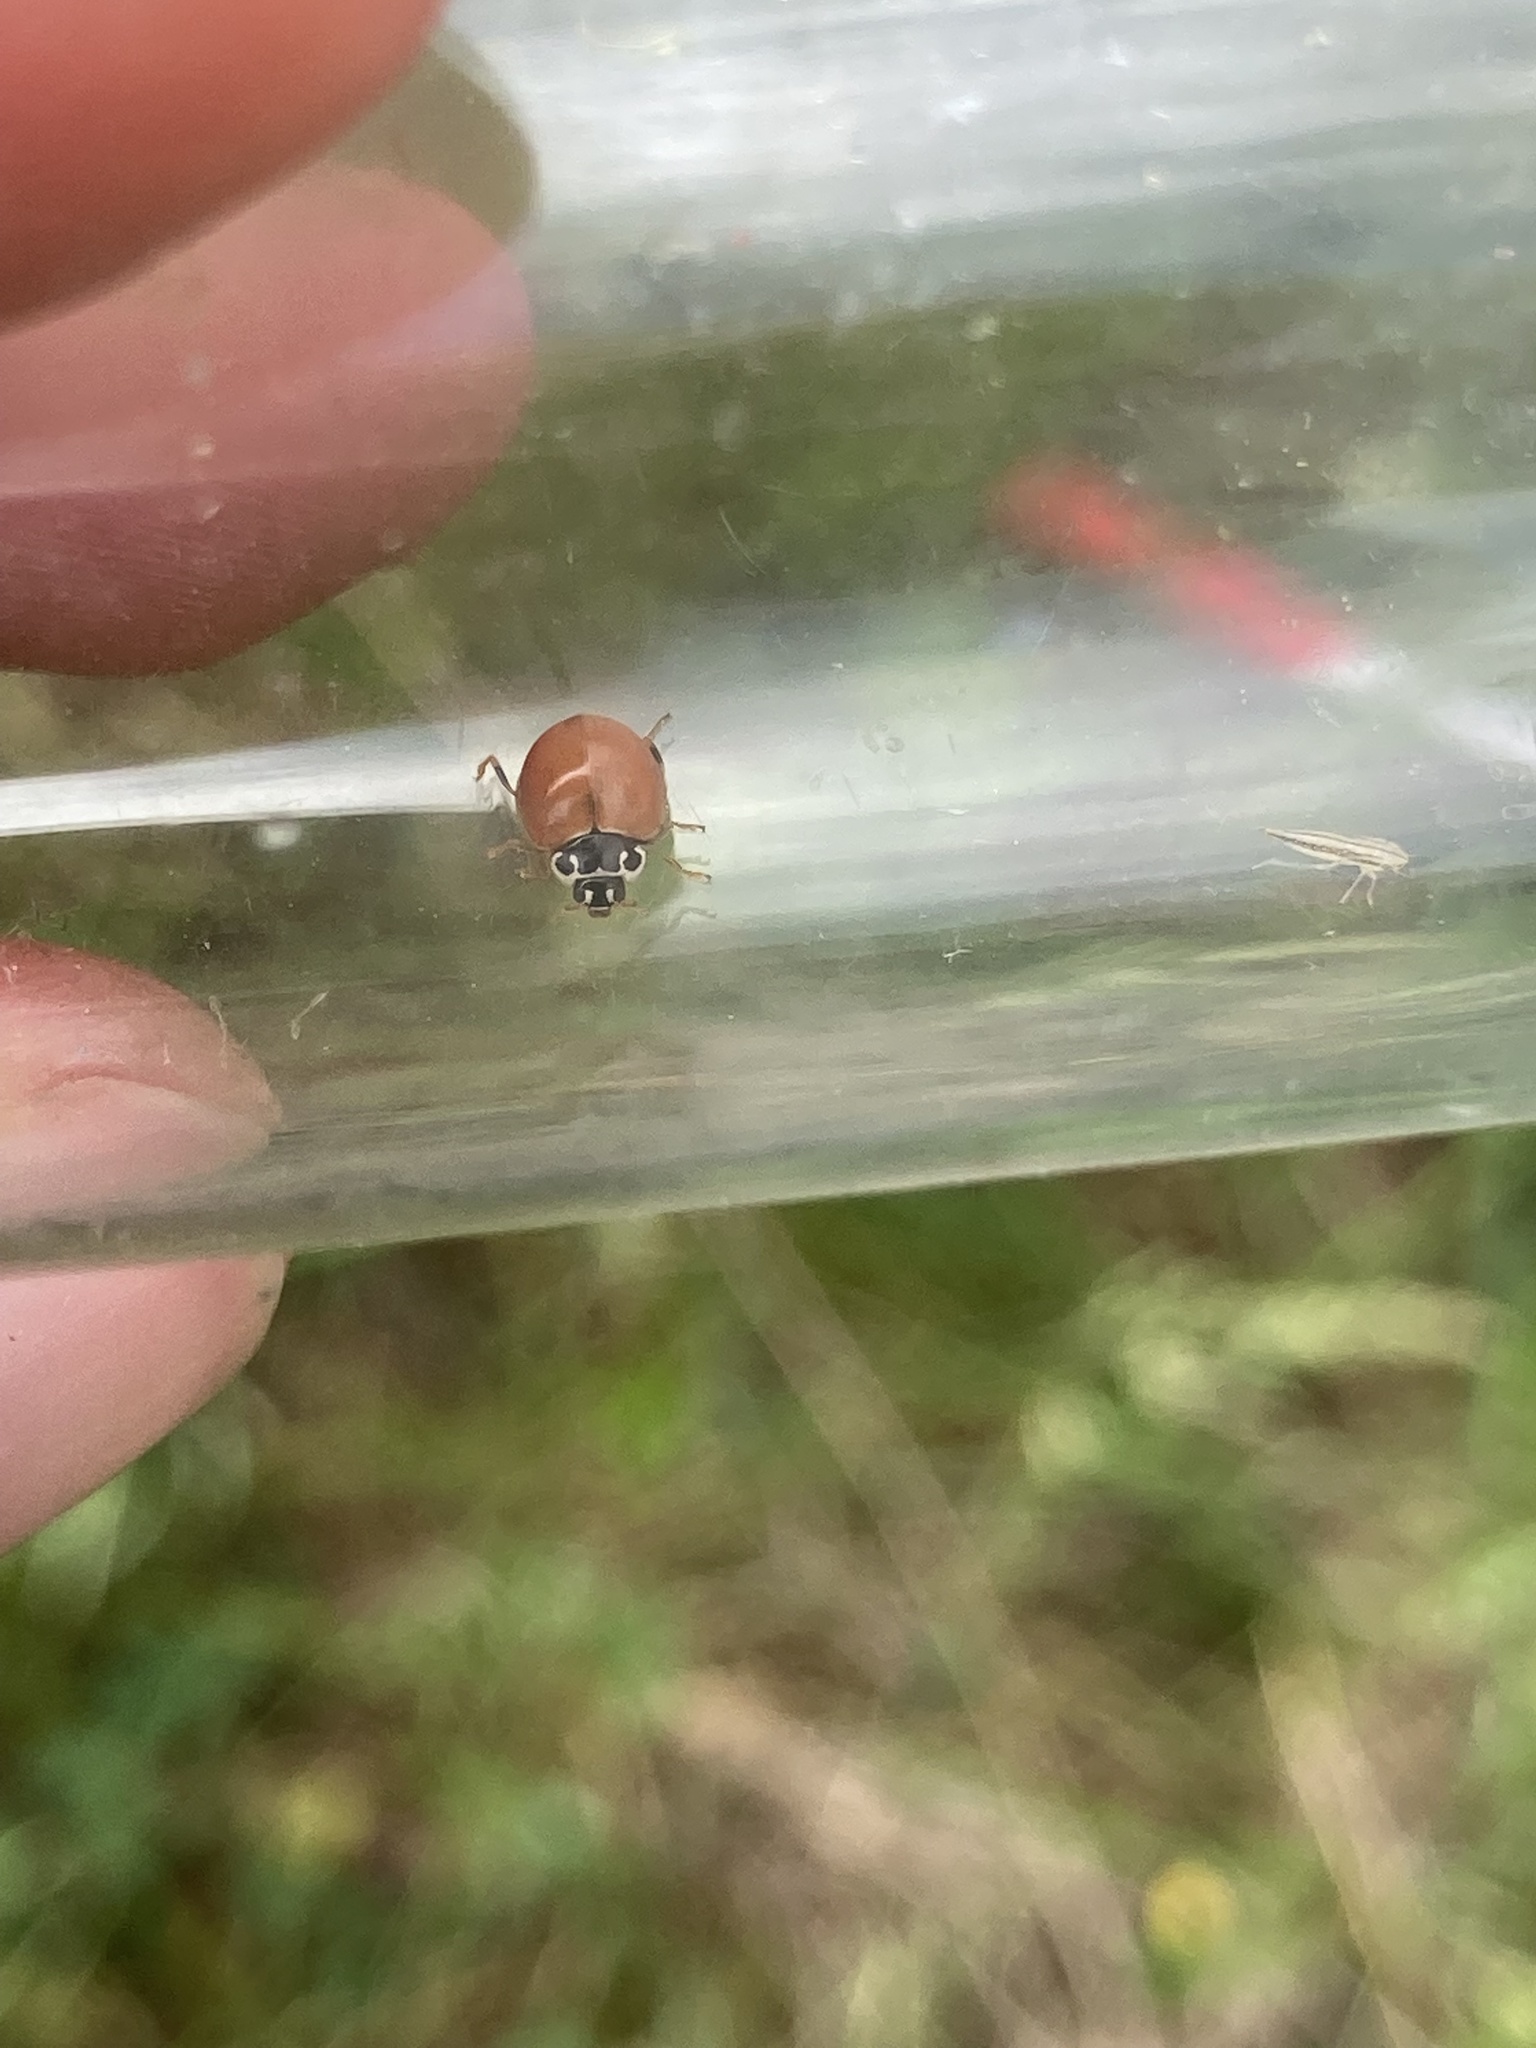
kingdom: Animalia
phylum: Arthropoda
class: Insecta
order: Coleoptera
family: Coccinellidae
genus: Cycloneda
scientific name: Cycloneda munda
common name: Polished lady beetle
